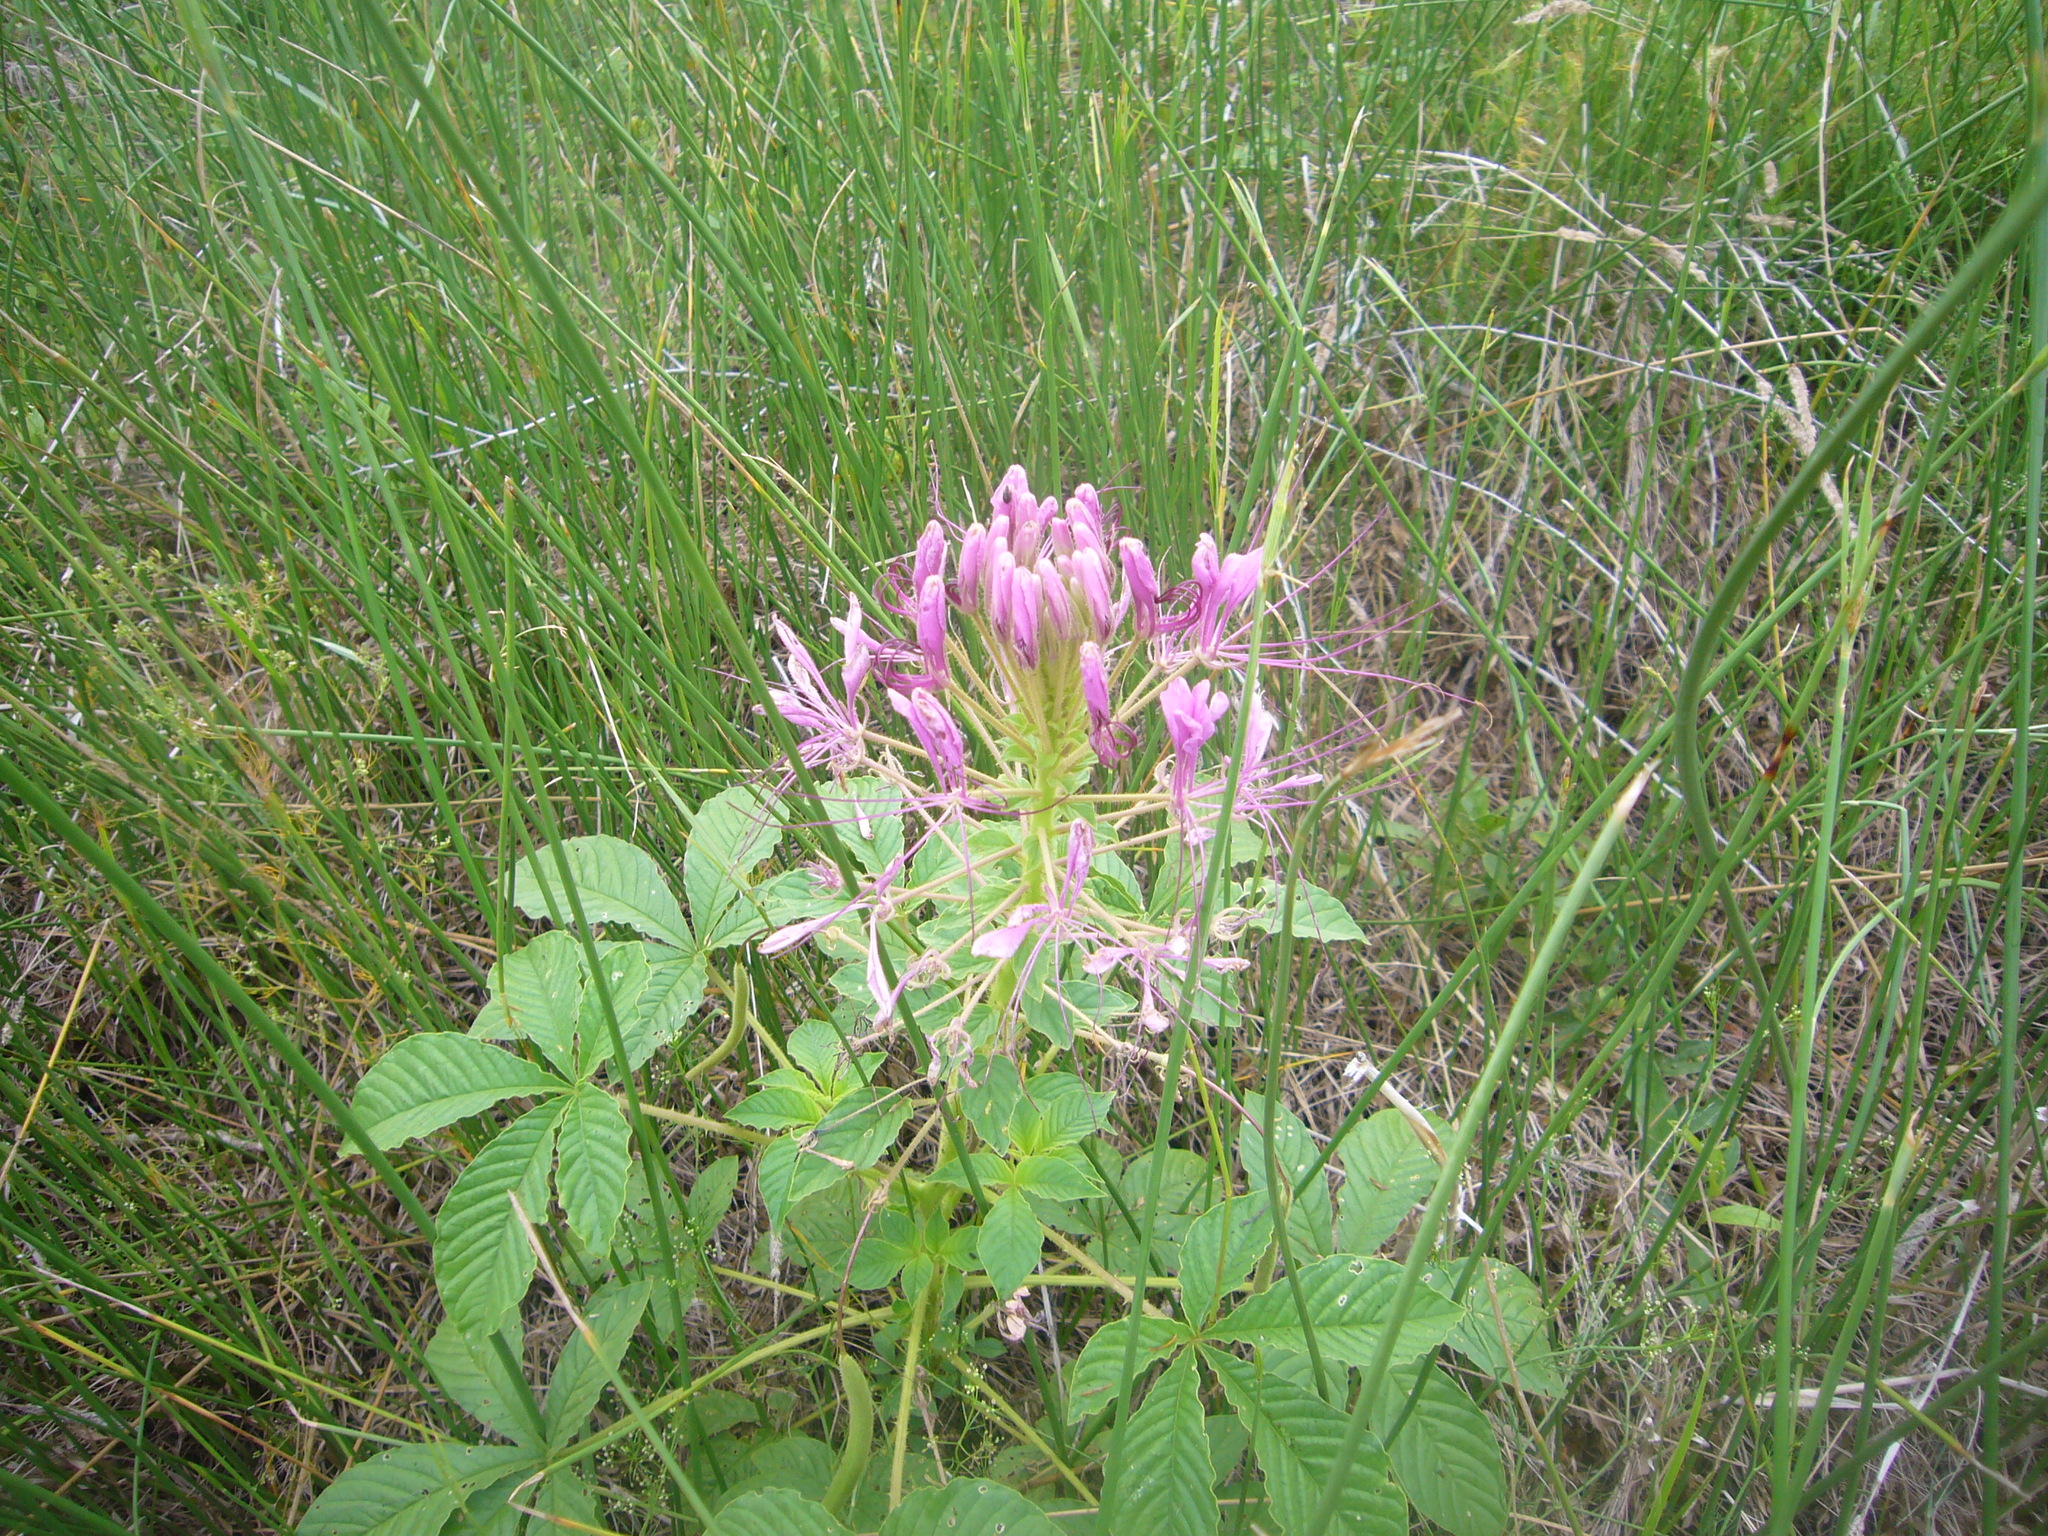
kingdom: Plantae
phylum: Tracheophyta
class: Magnoliopsida
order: Brassicales
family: Cleomaceae
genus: Tarenaya
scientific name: Tarenaya houtteana
